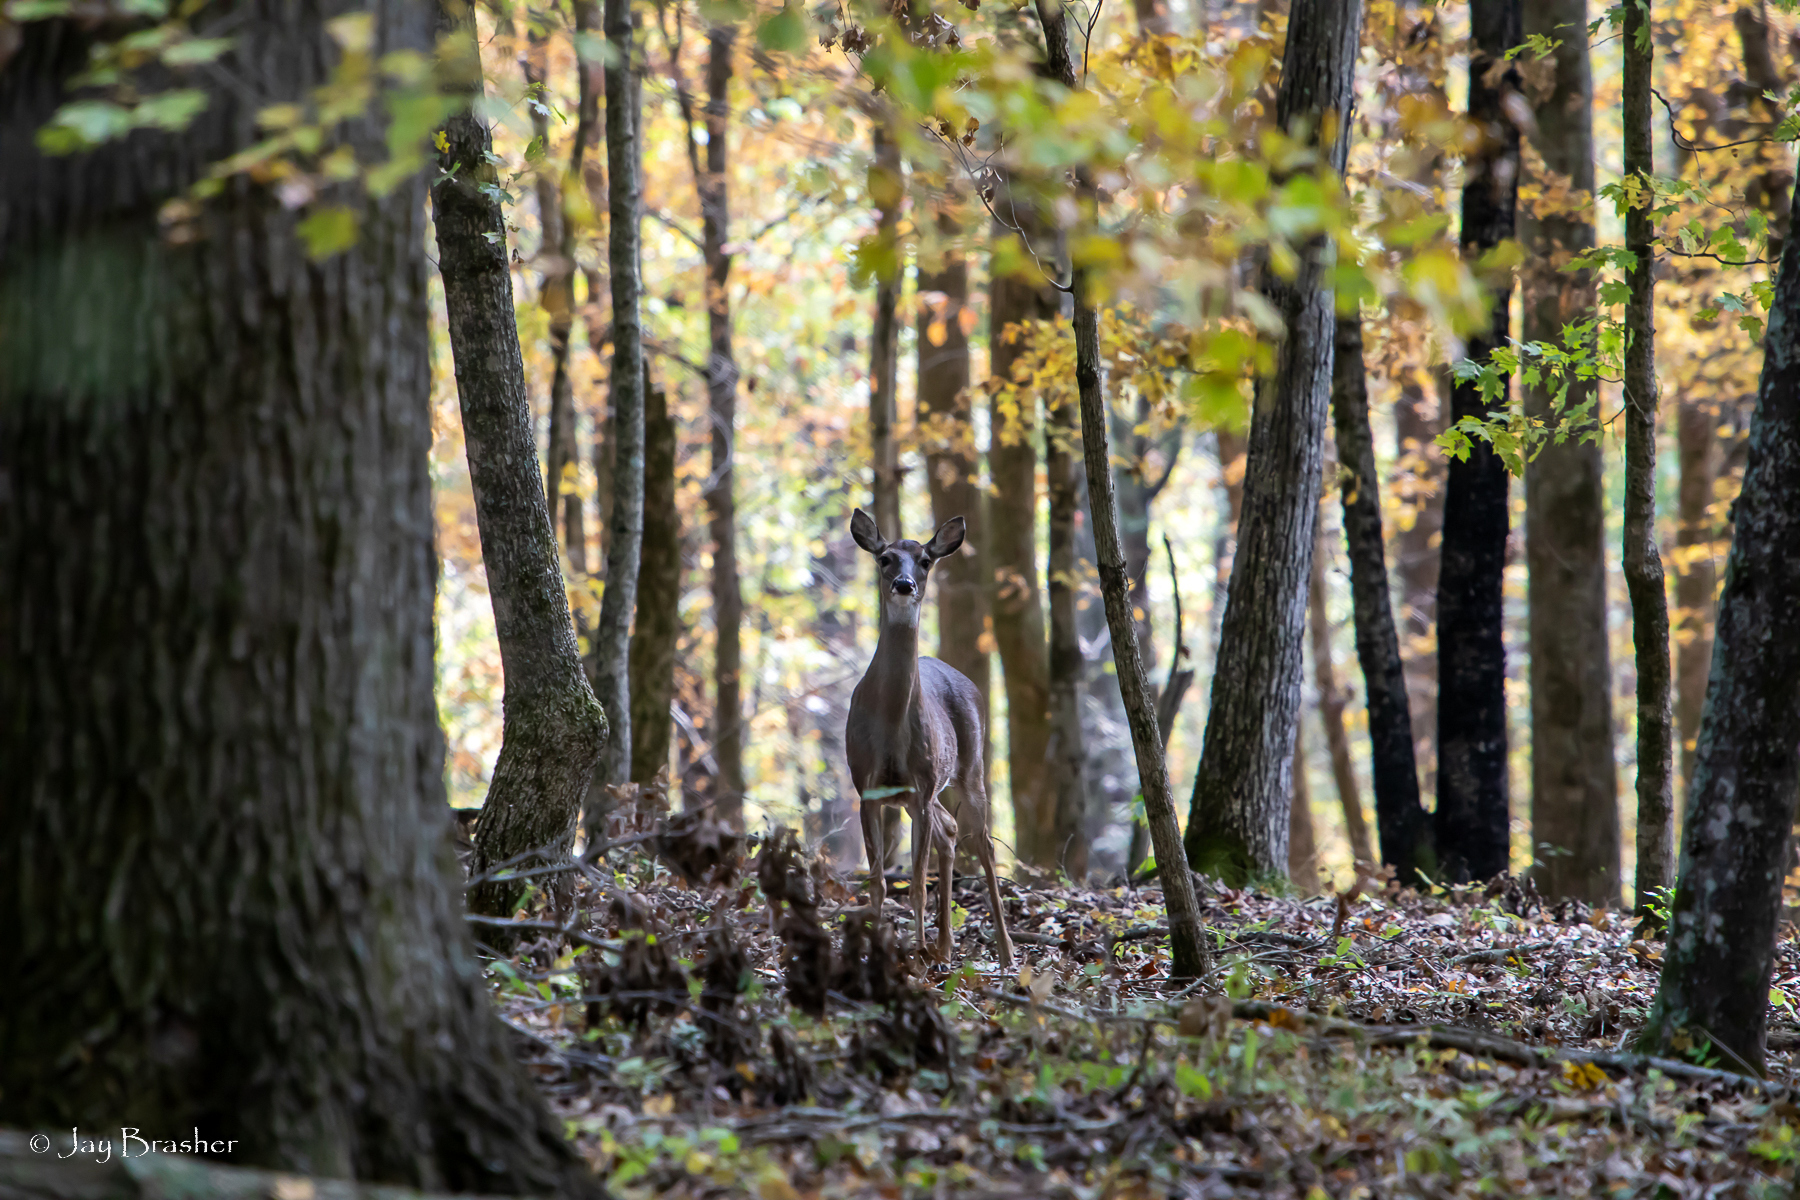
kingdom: Animalia
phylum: Chordata
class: Mammalia
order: Artiodactyla
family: Cervidae
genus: Odocoileus
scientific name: Odocoileus virginianus
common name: White-tailed deer
